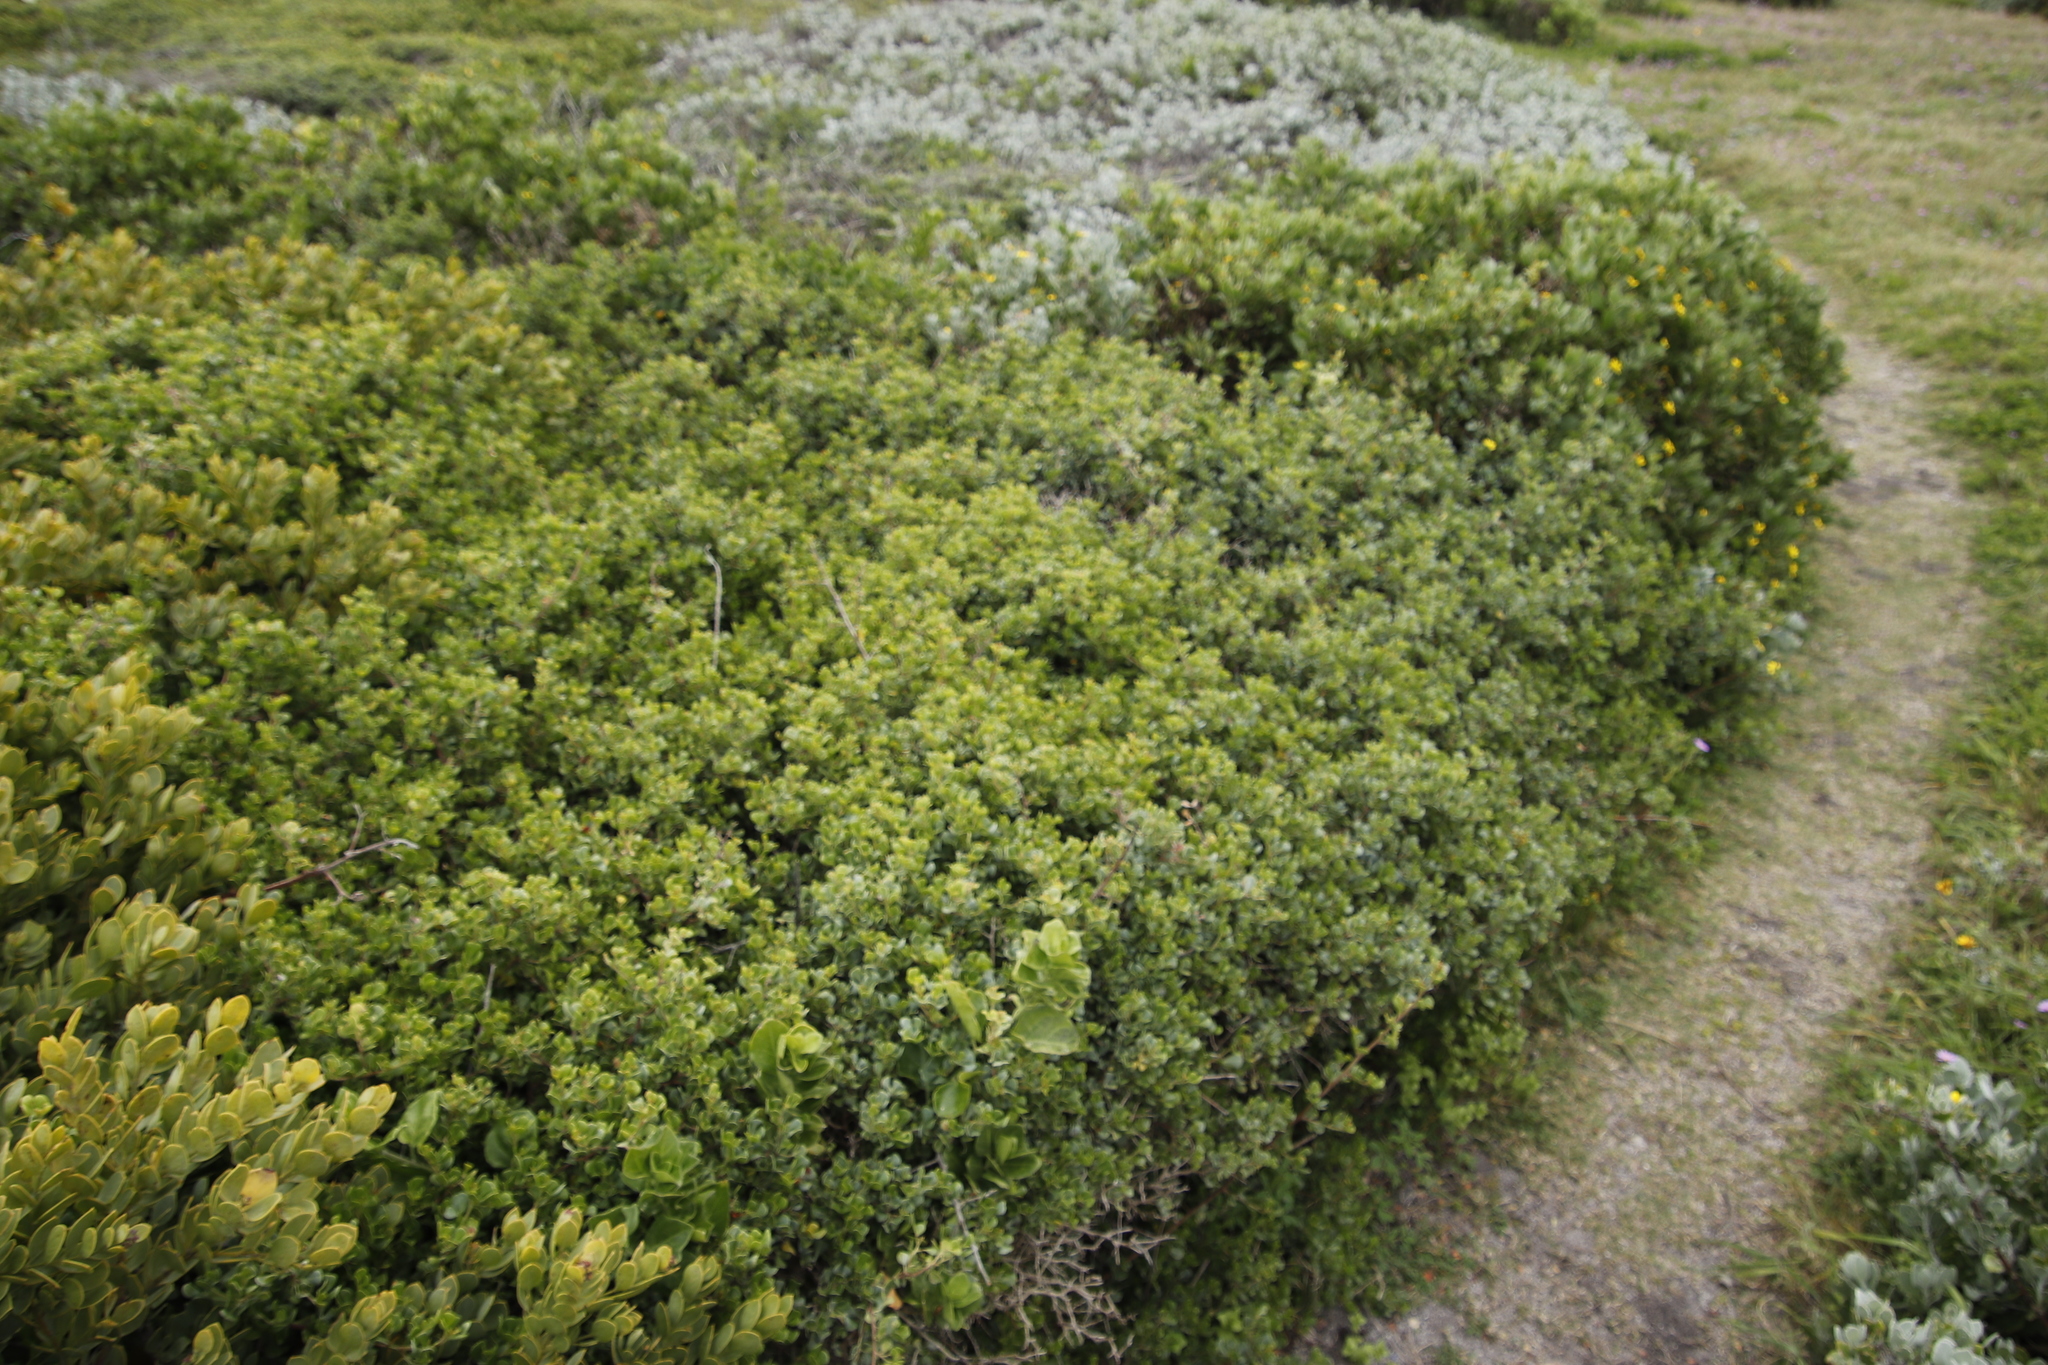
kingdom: Plantae
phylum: Tracheophyta
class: Magnoliopsida
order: Sapindales
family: Anacardiaceae
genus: Searsia
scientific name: Searsia glauca
